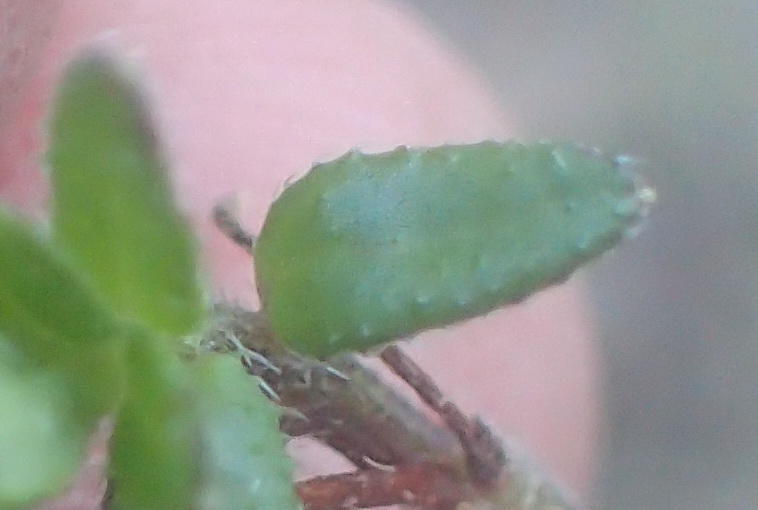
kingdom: Plantae
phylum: Tracheophyta
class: Magnoliopsida
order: Asterales
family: Campanulaceae
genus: Lobelia
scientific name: Lobelia neglecta
